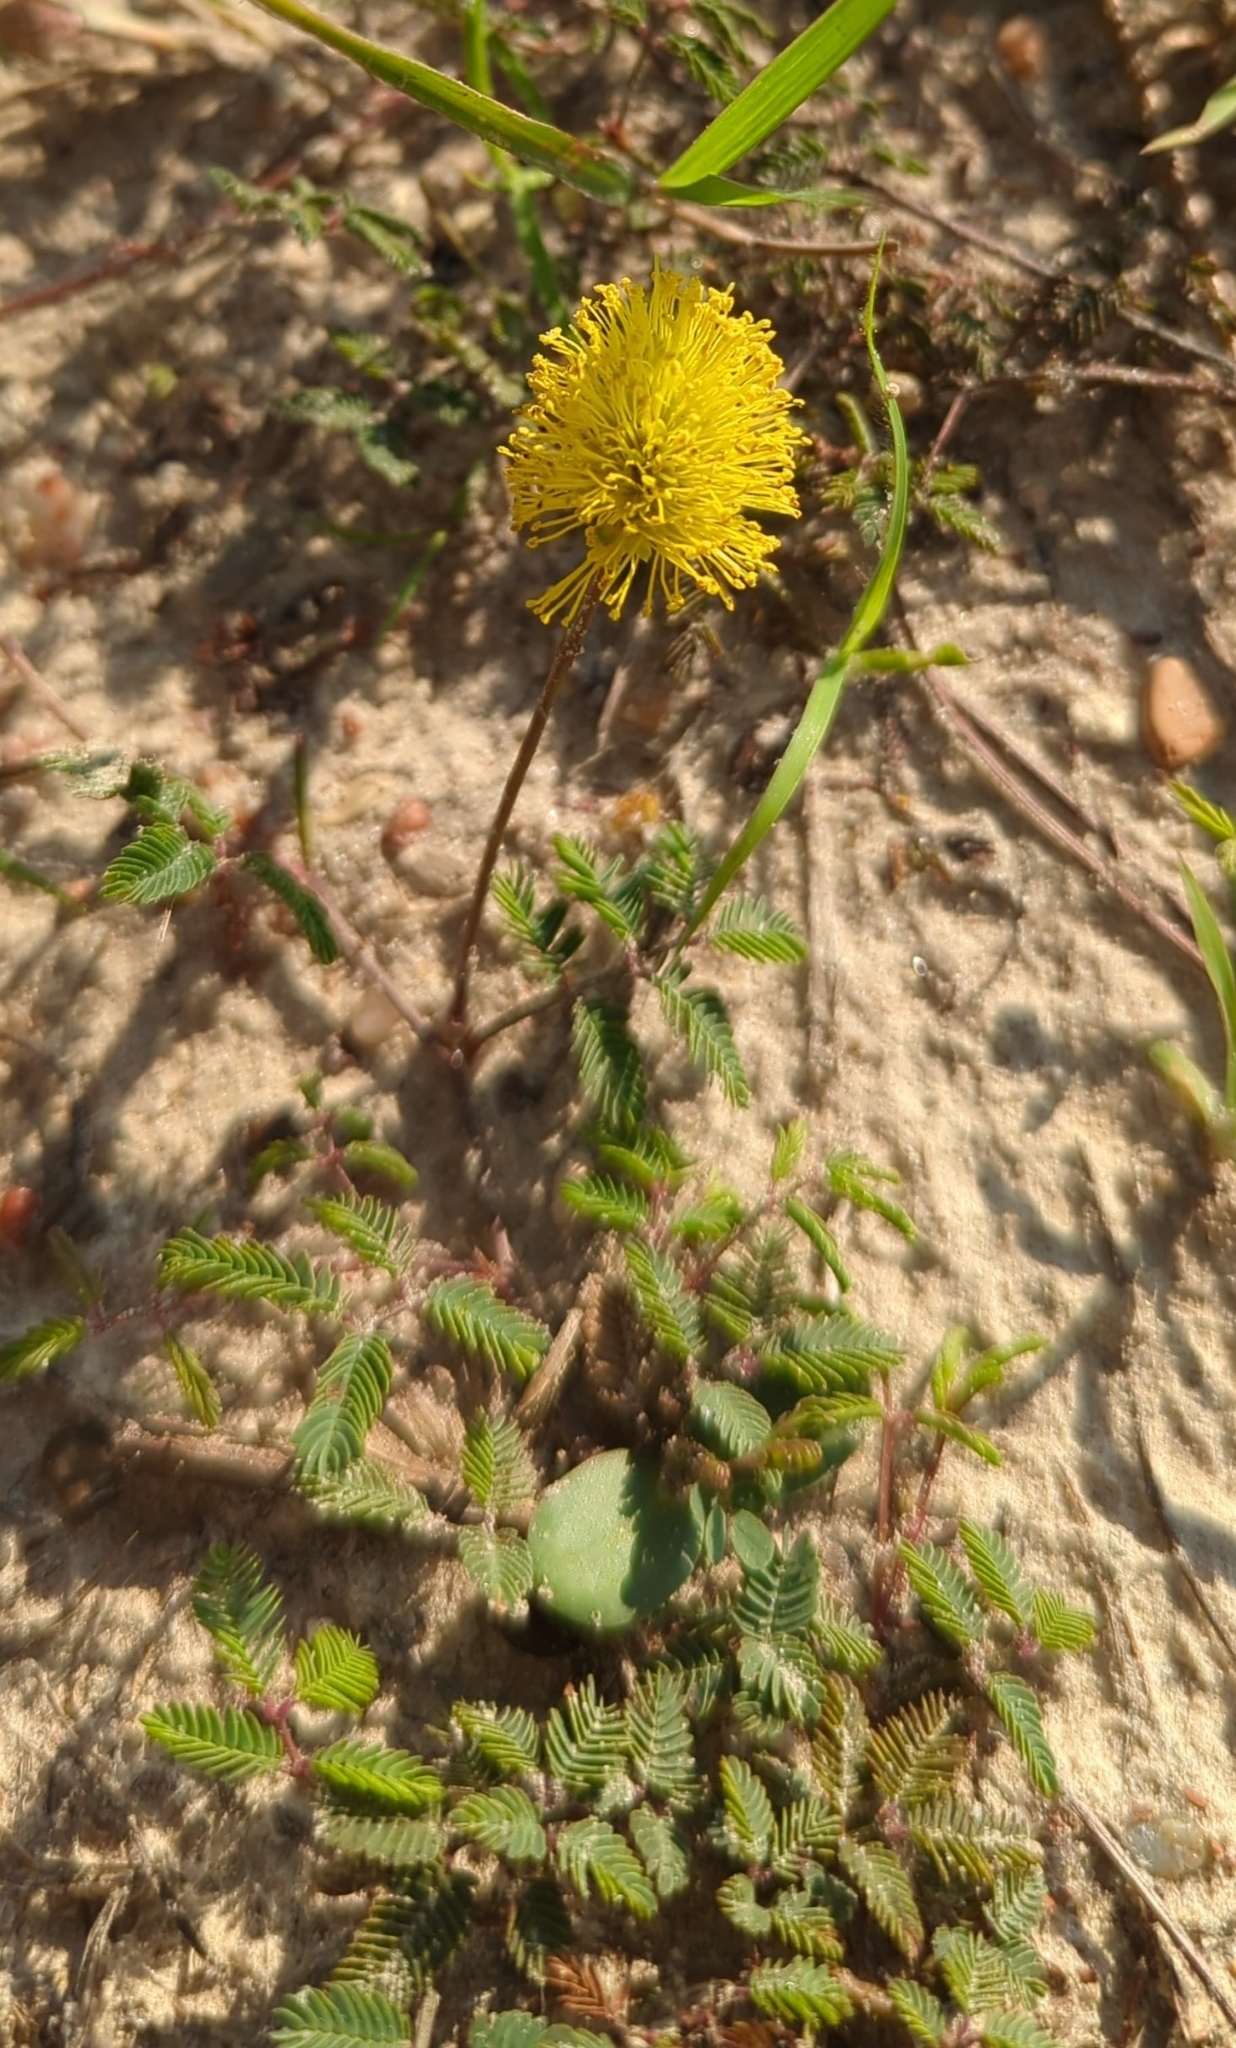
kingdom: Plantae
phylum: Tracheophyta
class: Magnoliopsida
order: Fabales
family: Fabaceae
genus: Neptunia
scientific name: Neptunia lutea
